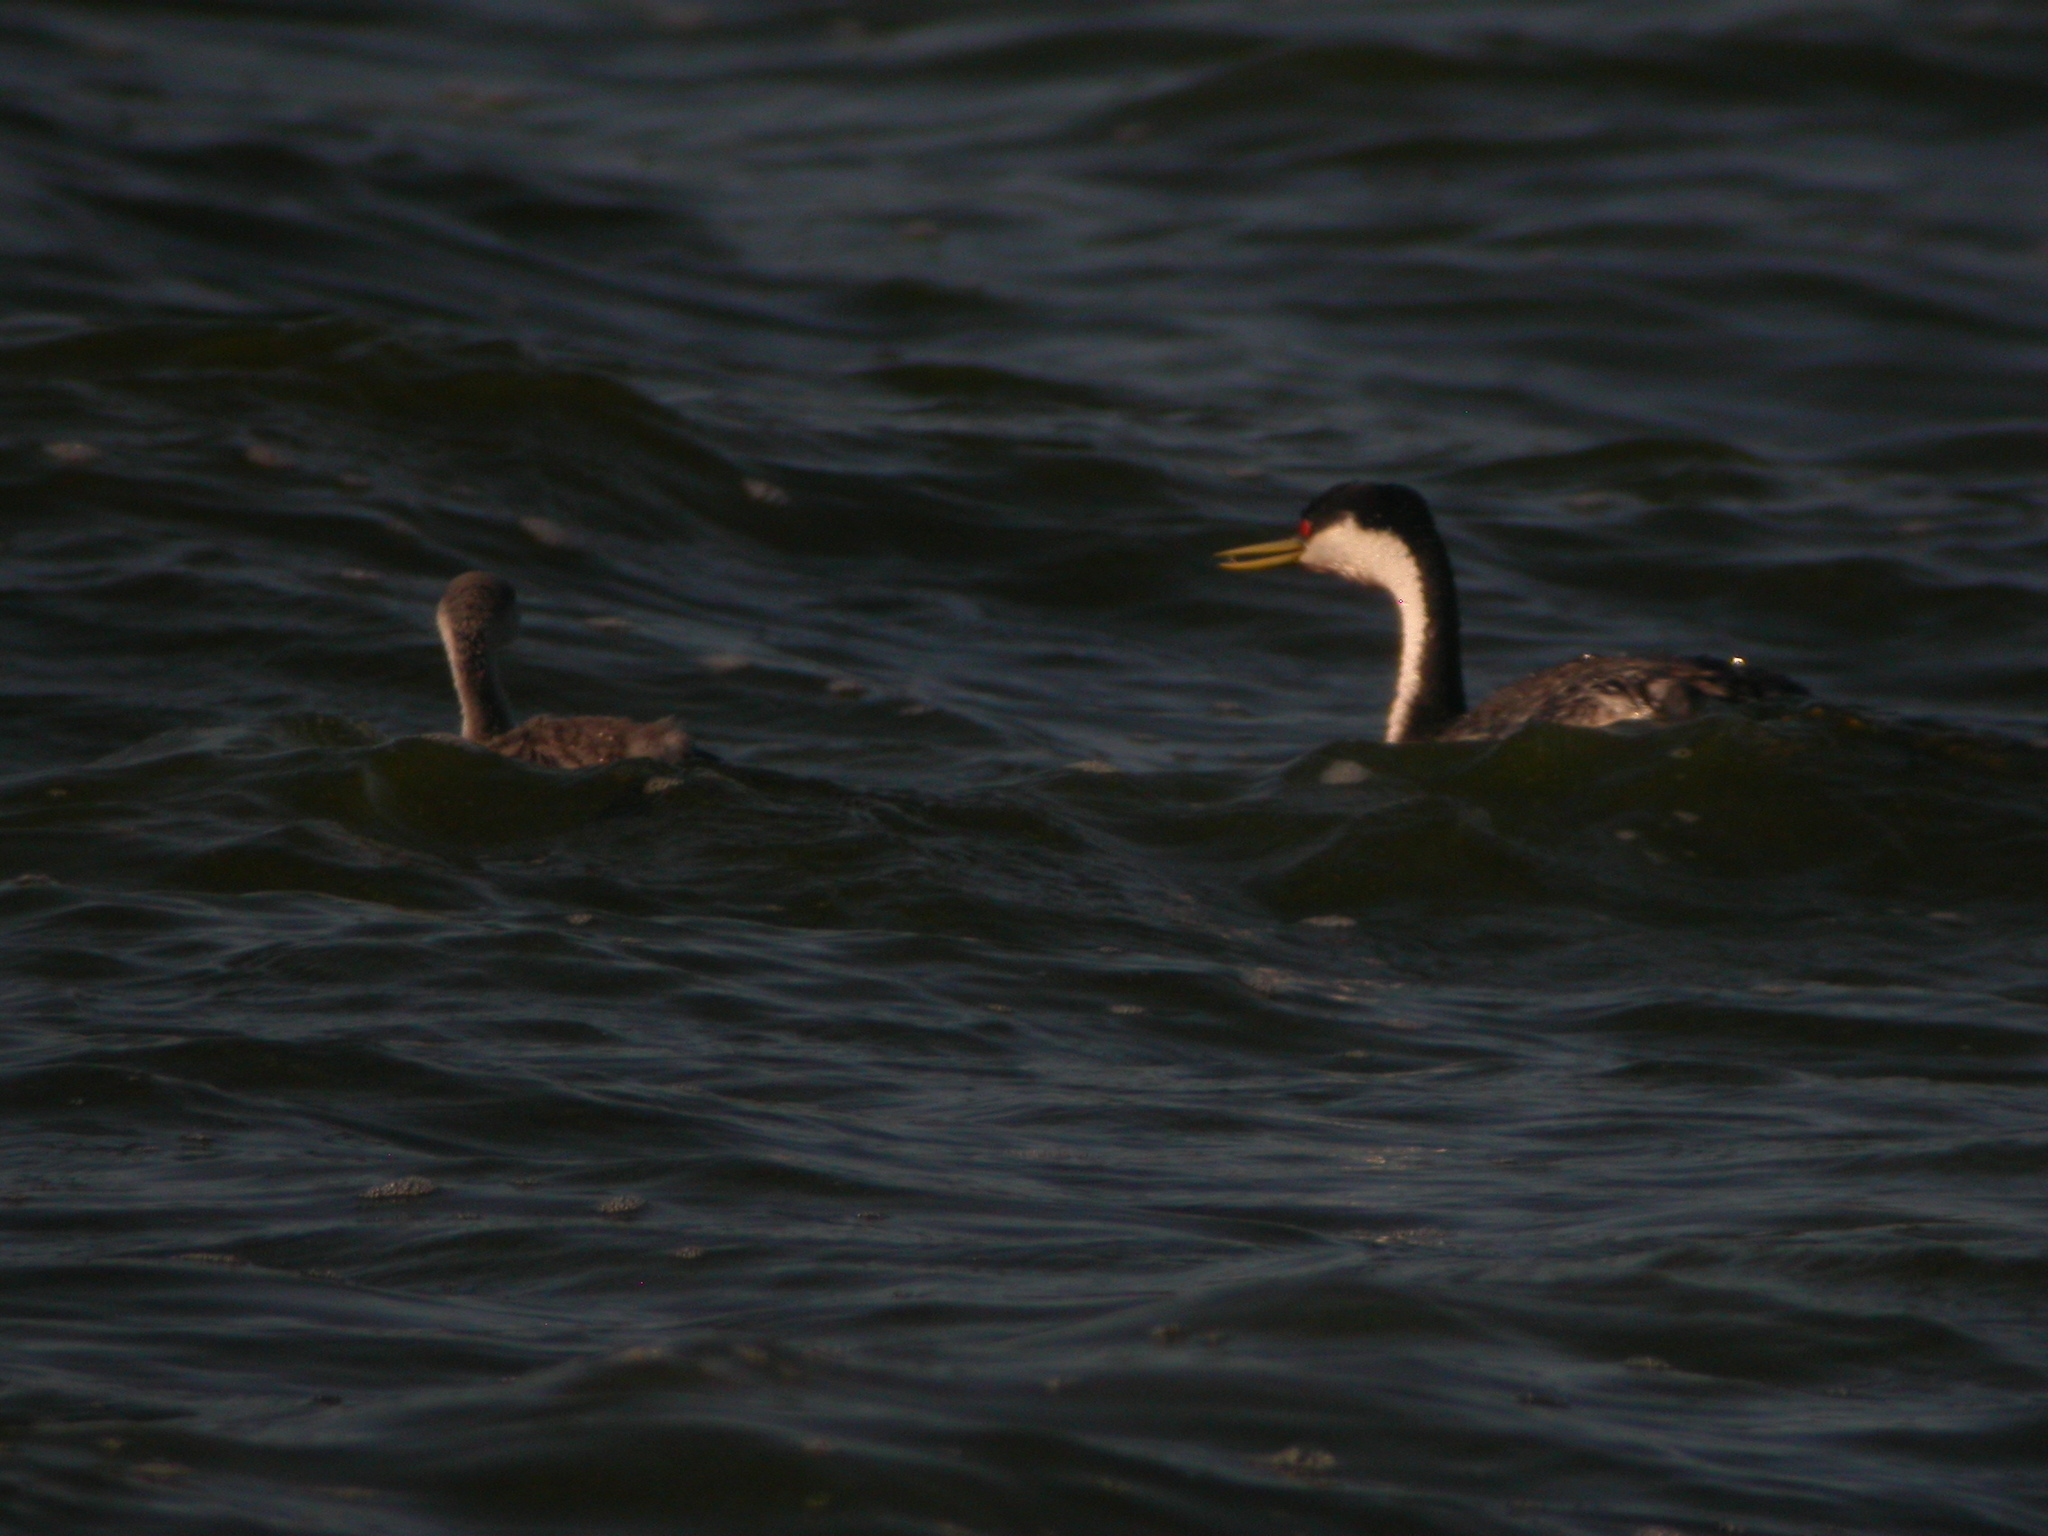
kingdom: Animalia
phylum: Chordata
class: Aves
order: Podicipediformes
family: Podicipedidae
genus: Aechmophorus
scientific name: Aechmophorus occidentalis
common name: Western grebe
